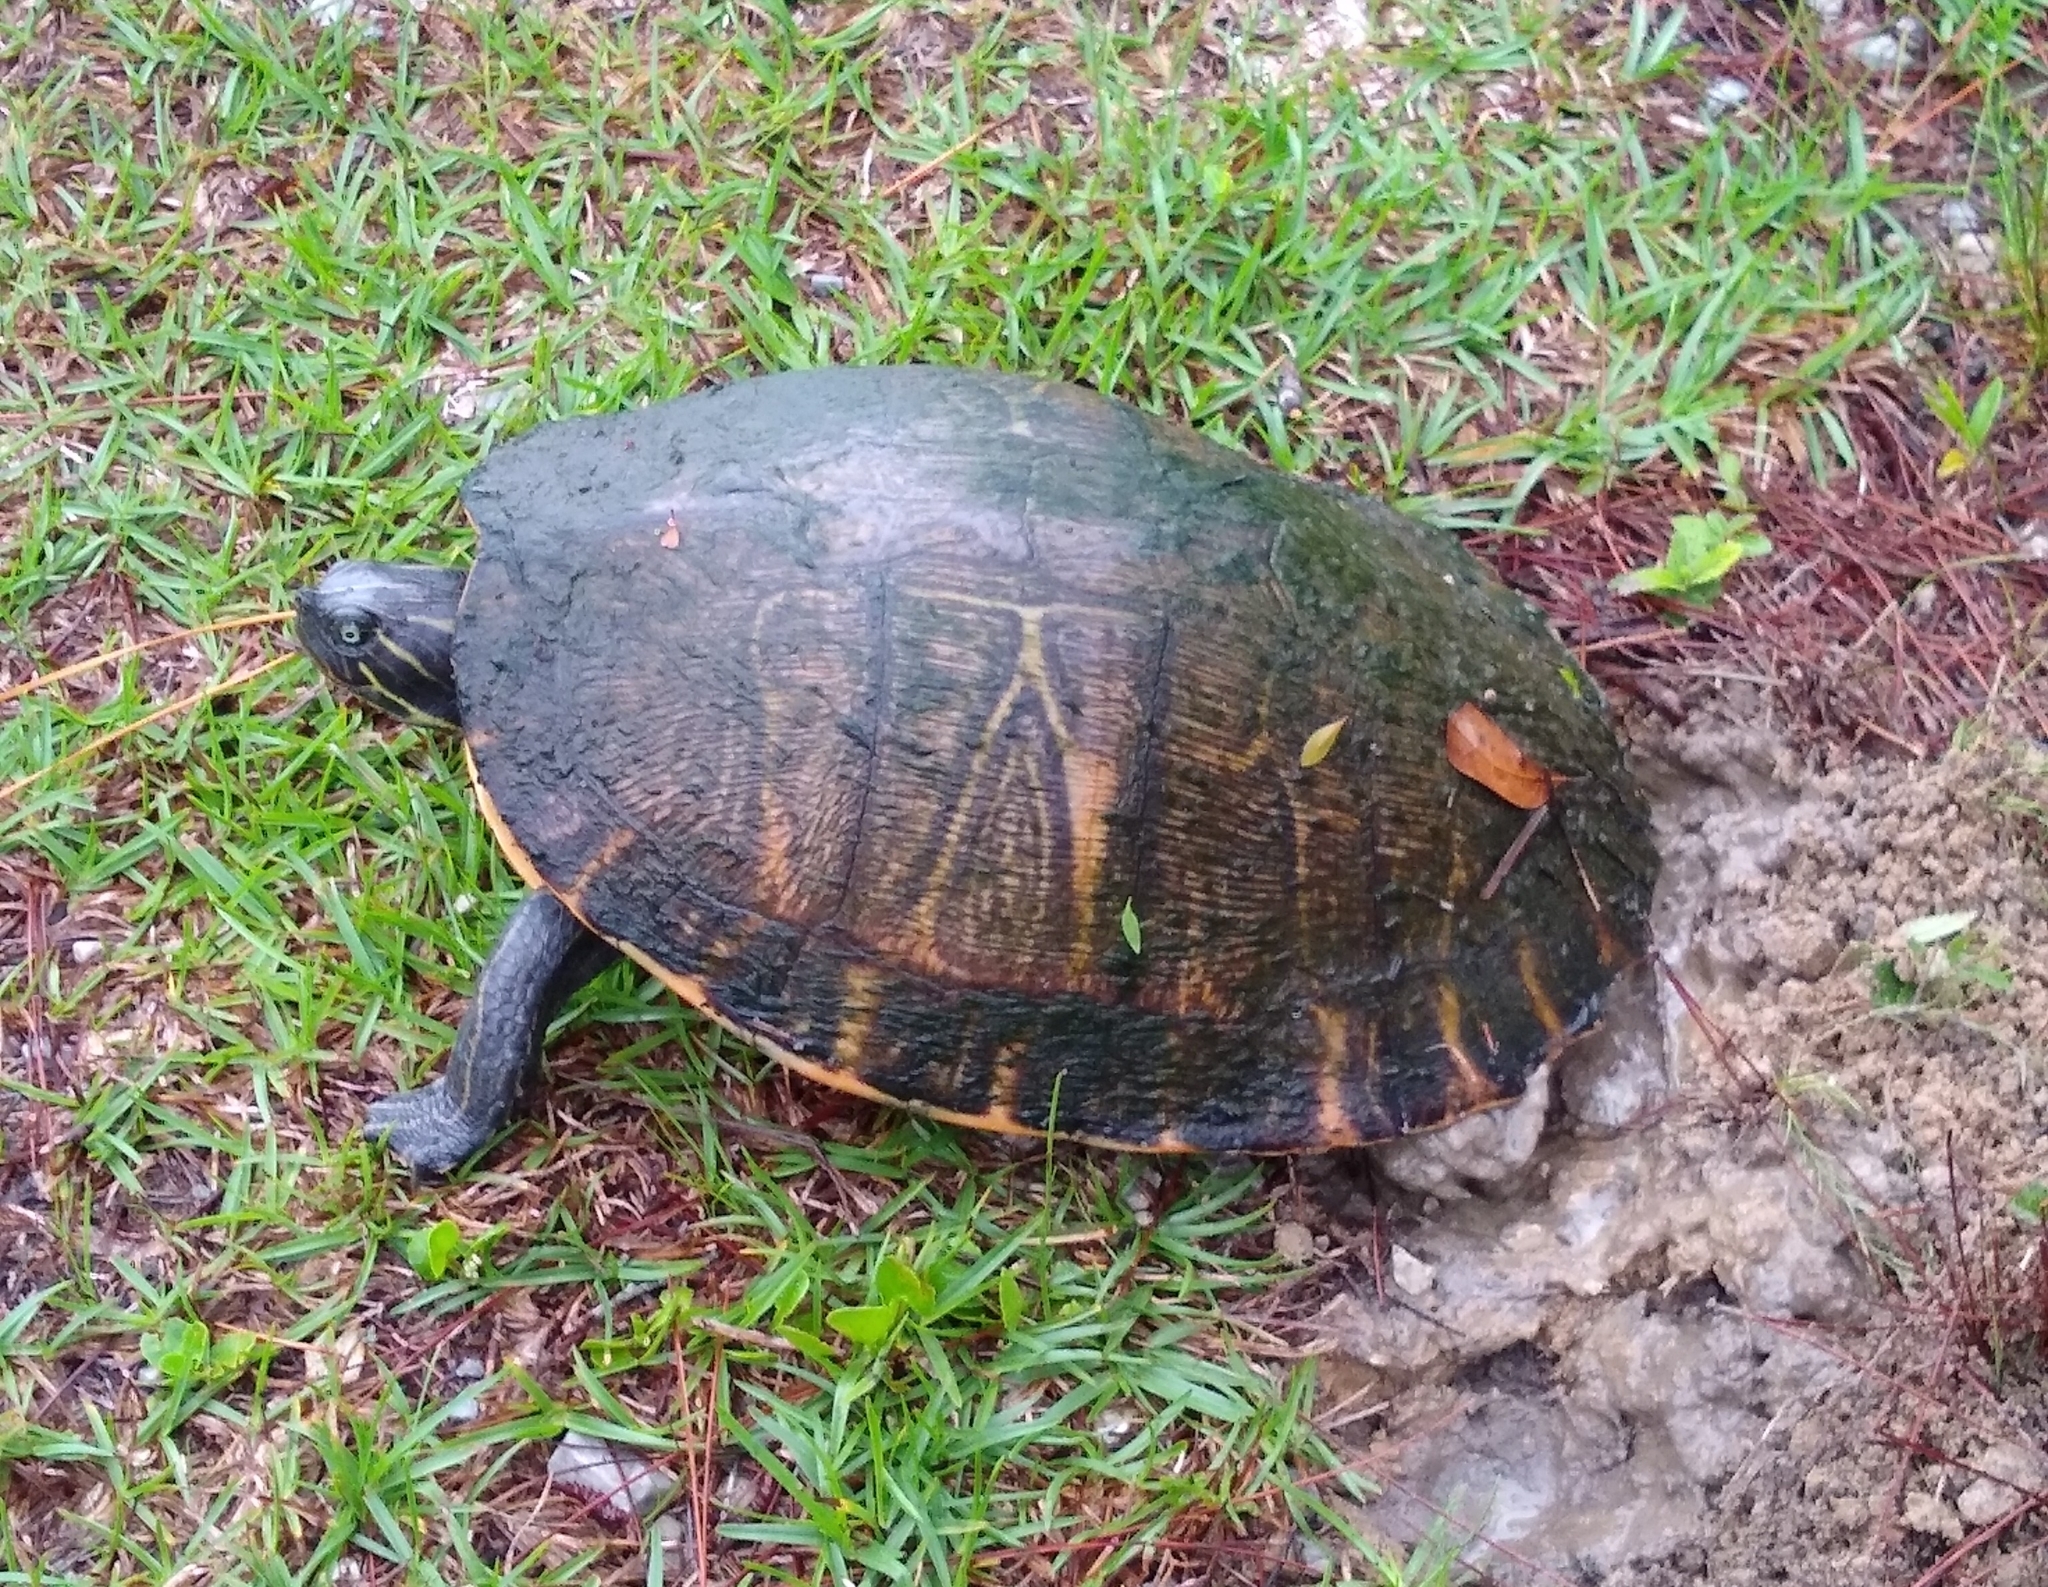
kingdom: Animalia
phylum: Chordata
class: Testudines
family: Emydidae
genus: Pseudemys
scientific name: Pseudemys concinna
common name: Eastern river cooter
